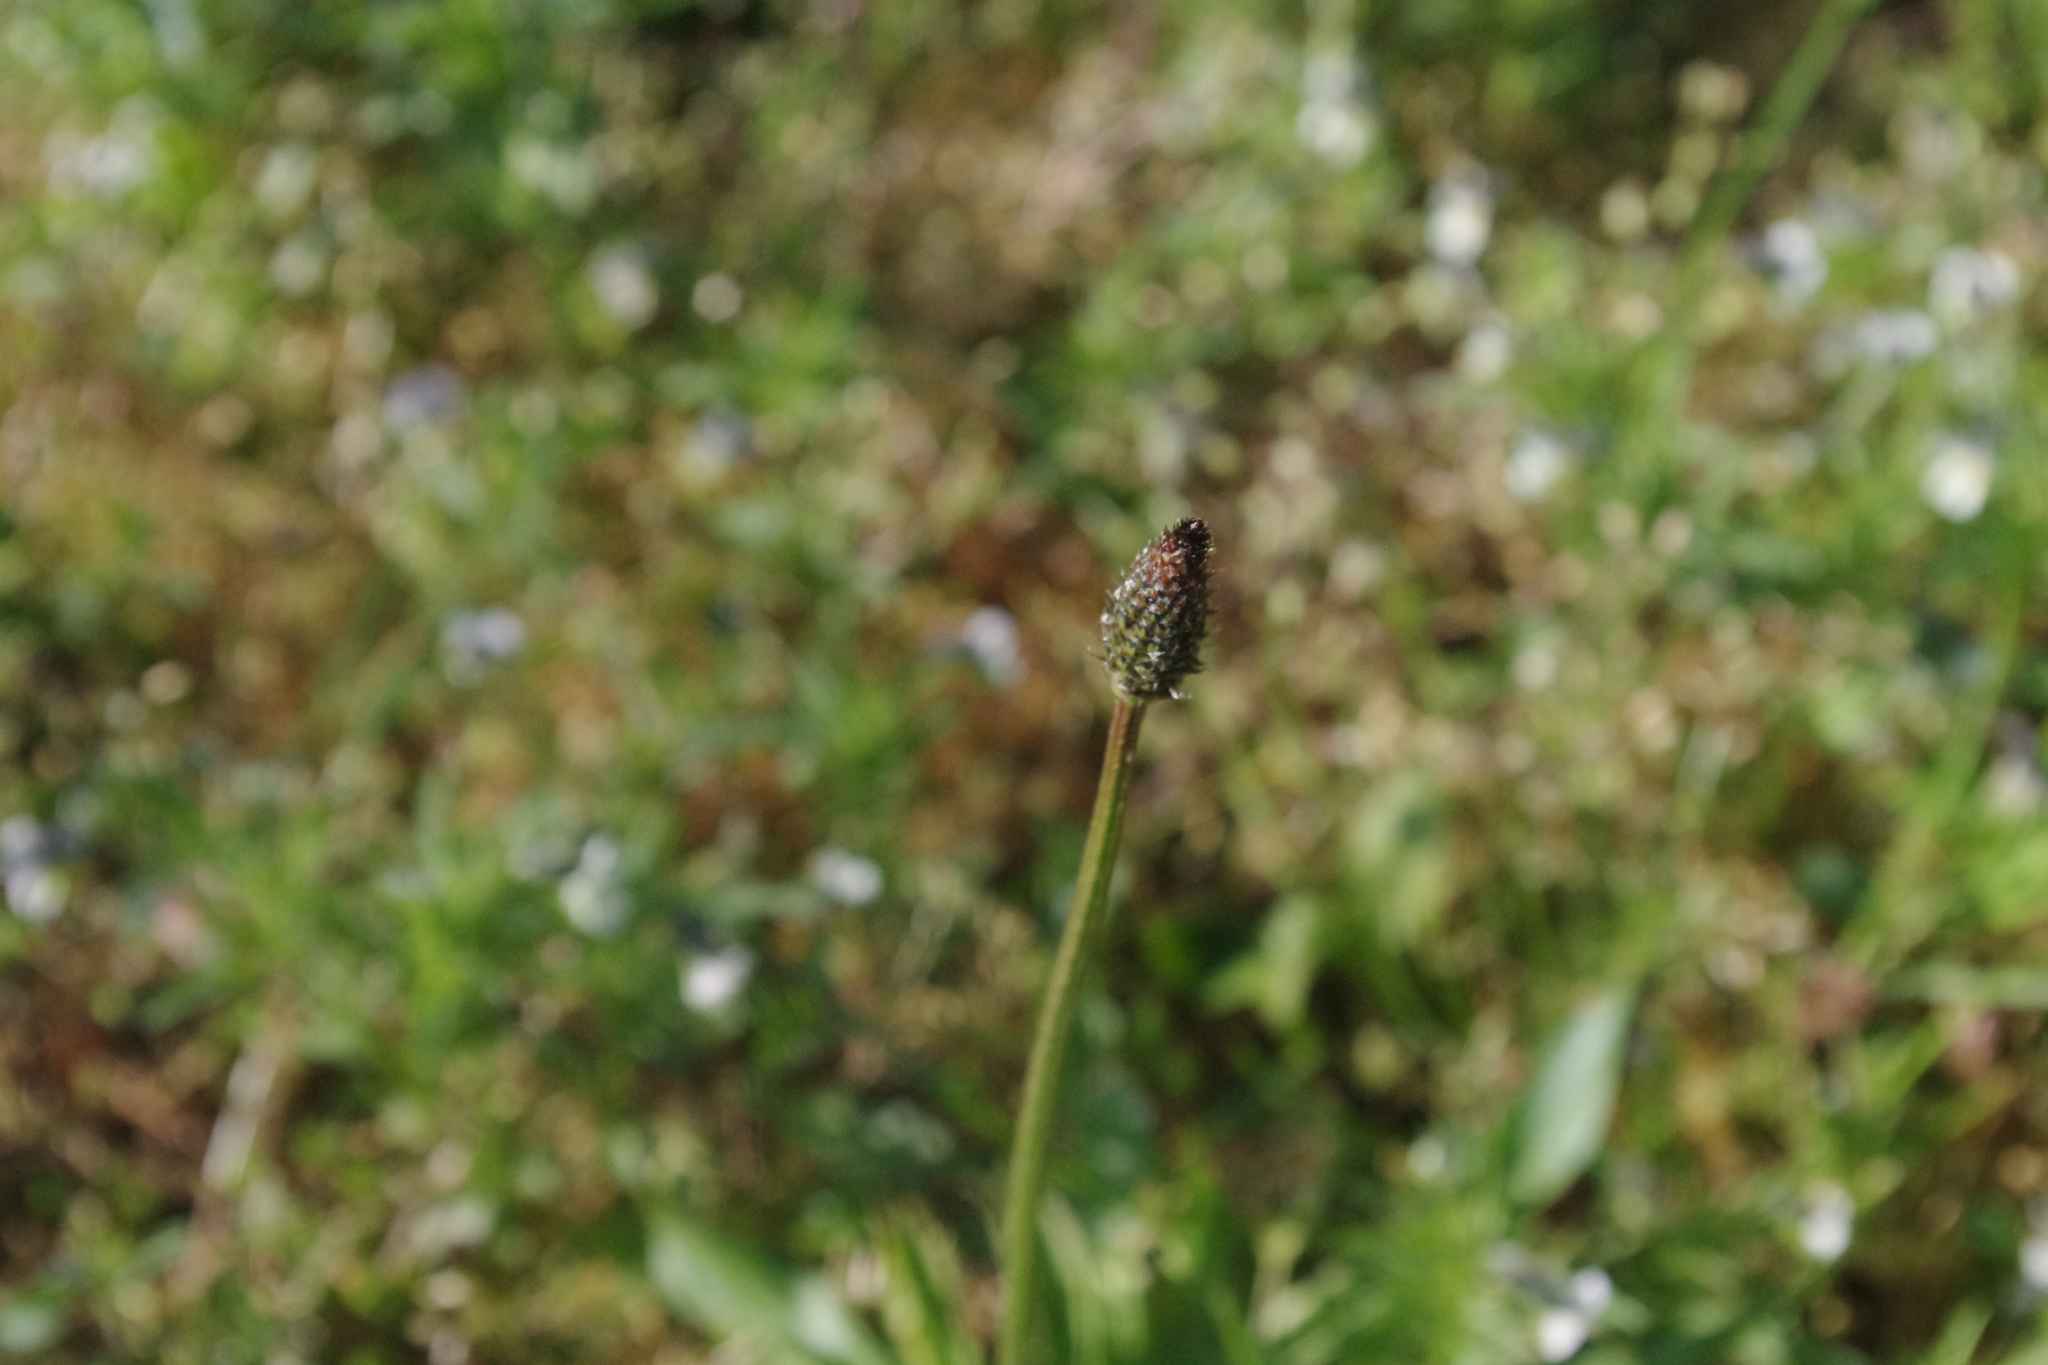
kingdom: Plantae
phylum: Tracheophyta
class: Magnoliopsida
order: Lamiales
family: Plantaginaceae
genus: Plantago
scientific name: Plantago lanceolata
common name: Ribwort plantain
